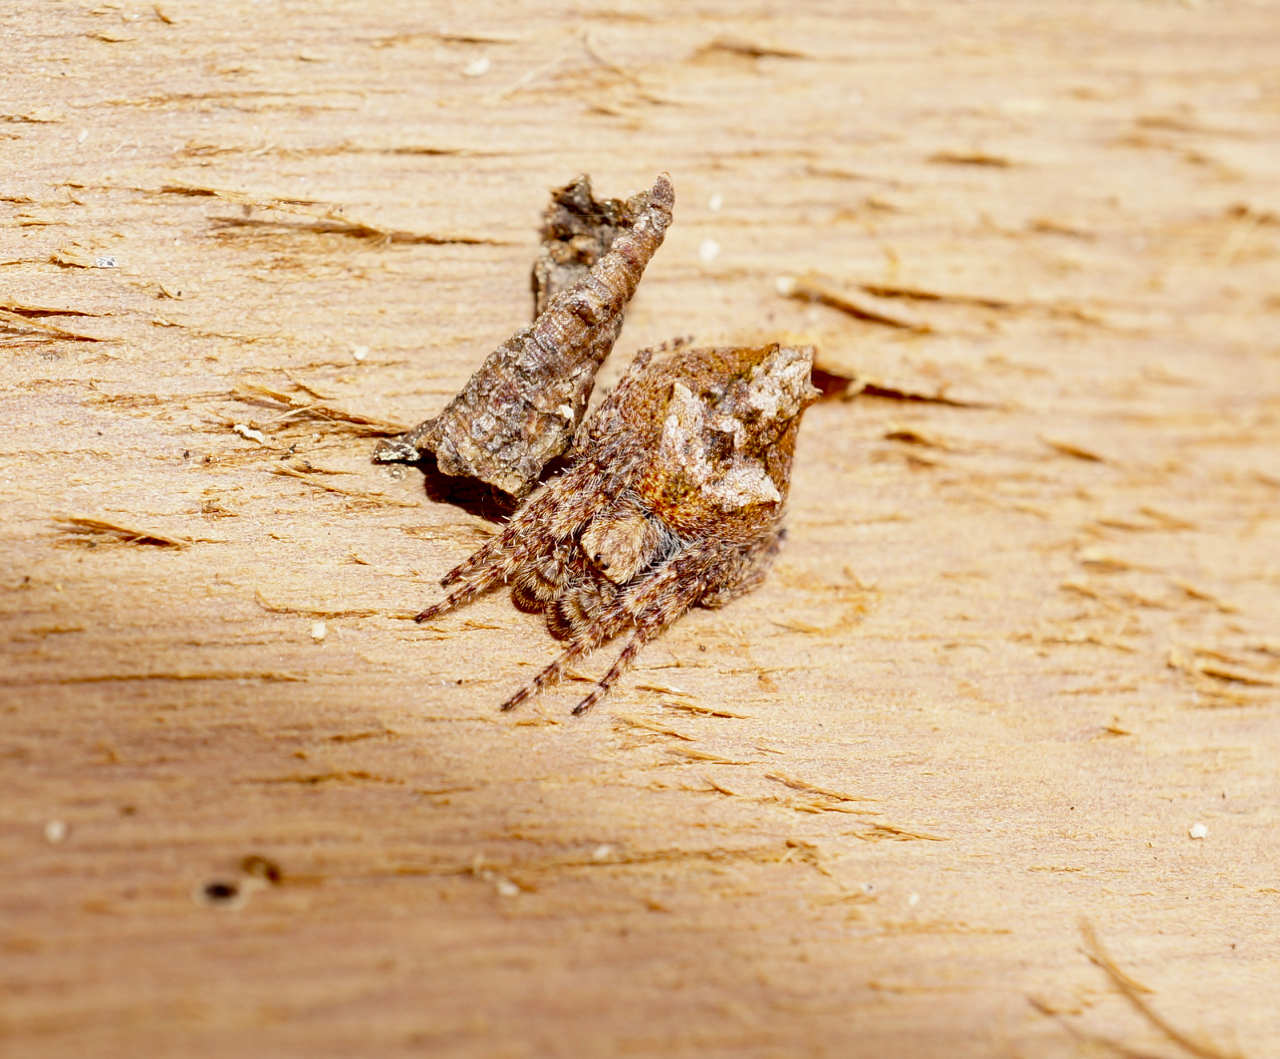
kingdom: Animalia
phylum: Arthropoda
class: Arachnida
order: Araneae
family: Araneidae
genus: Eriophora
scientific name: Eriophora pustulosa
